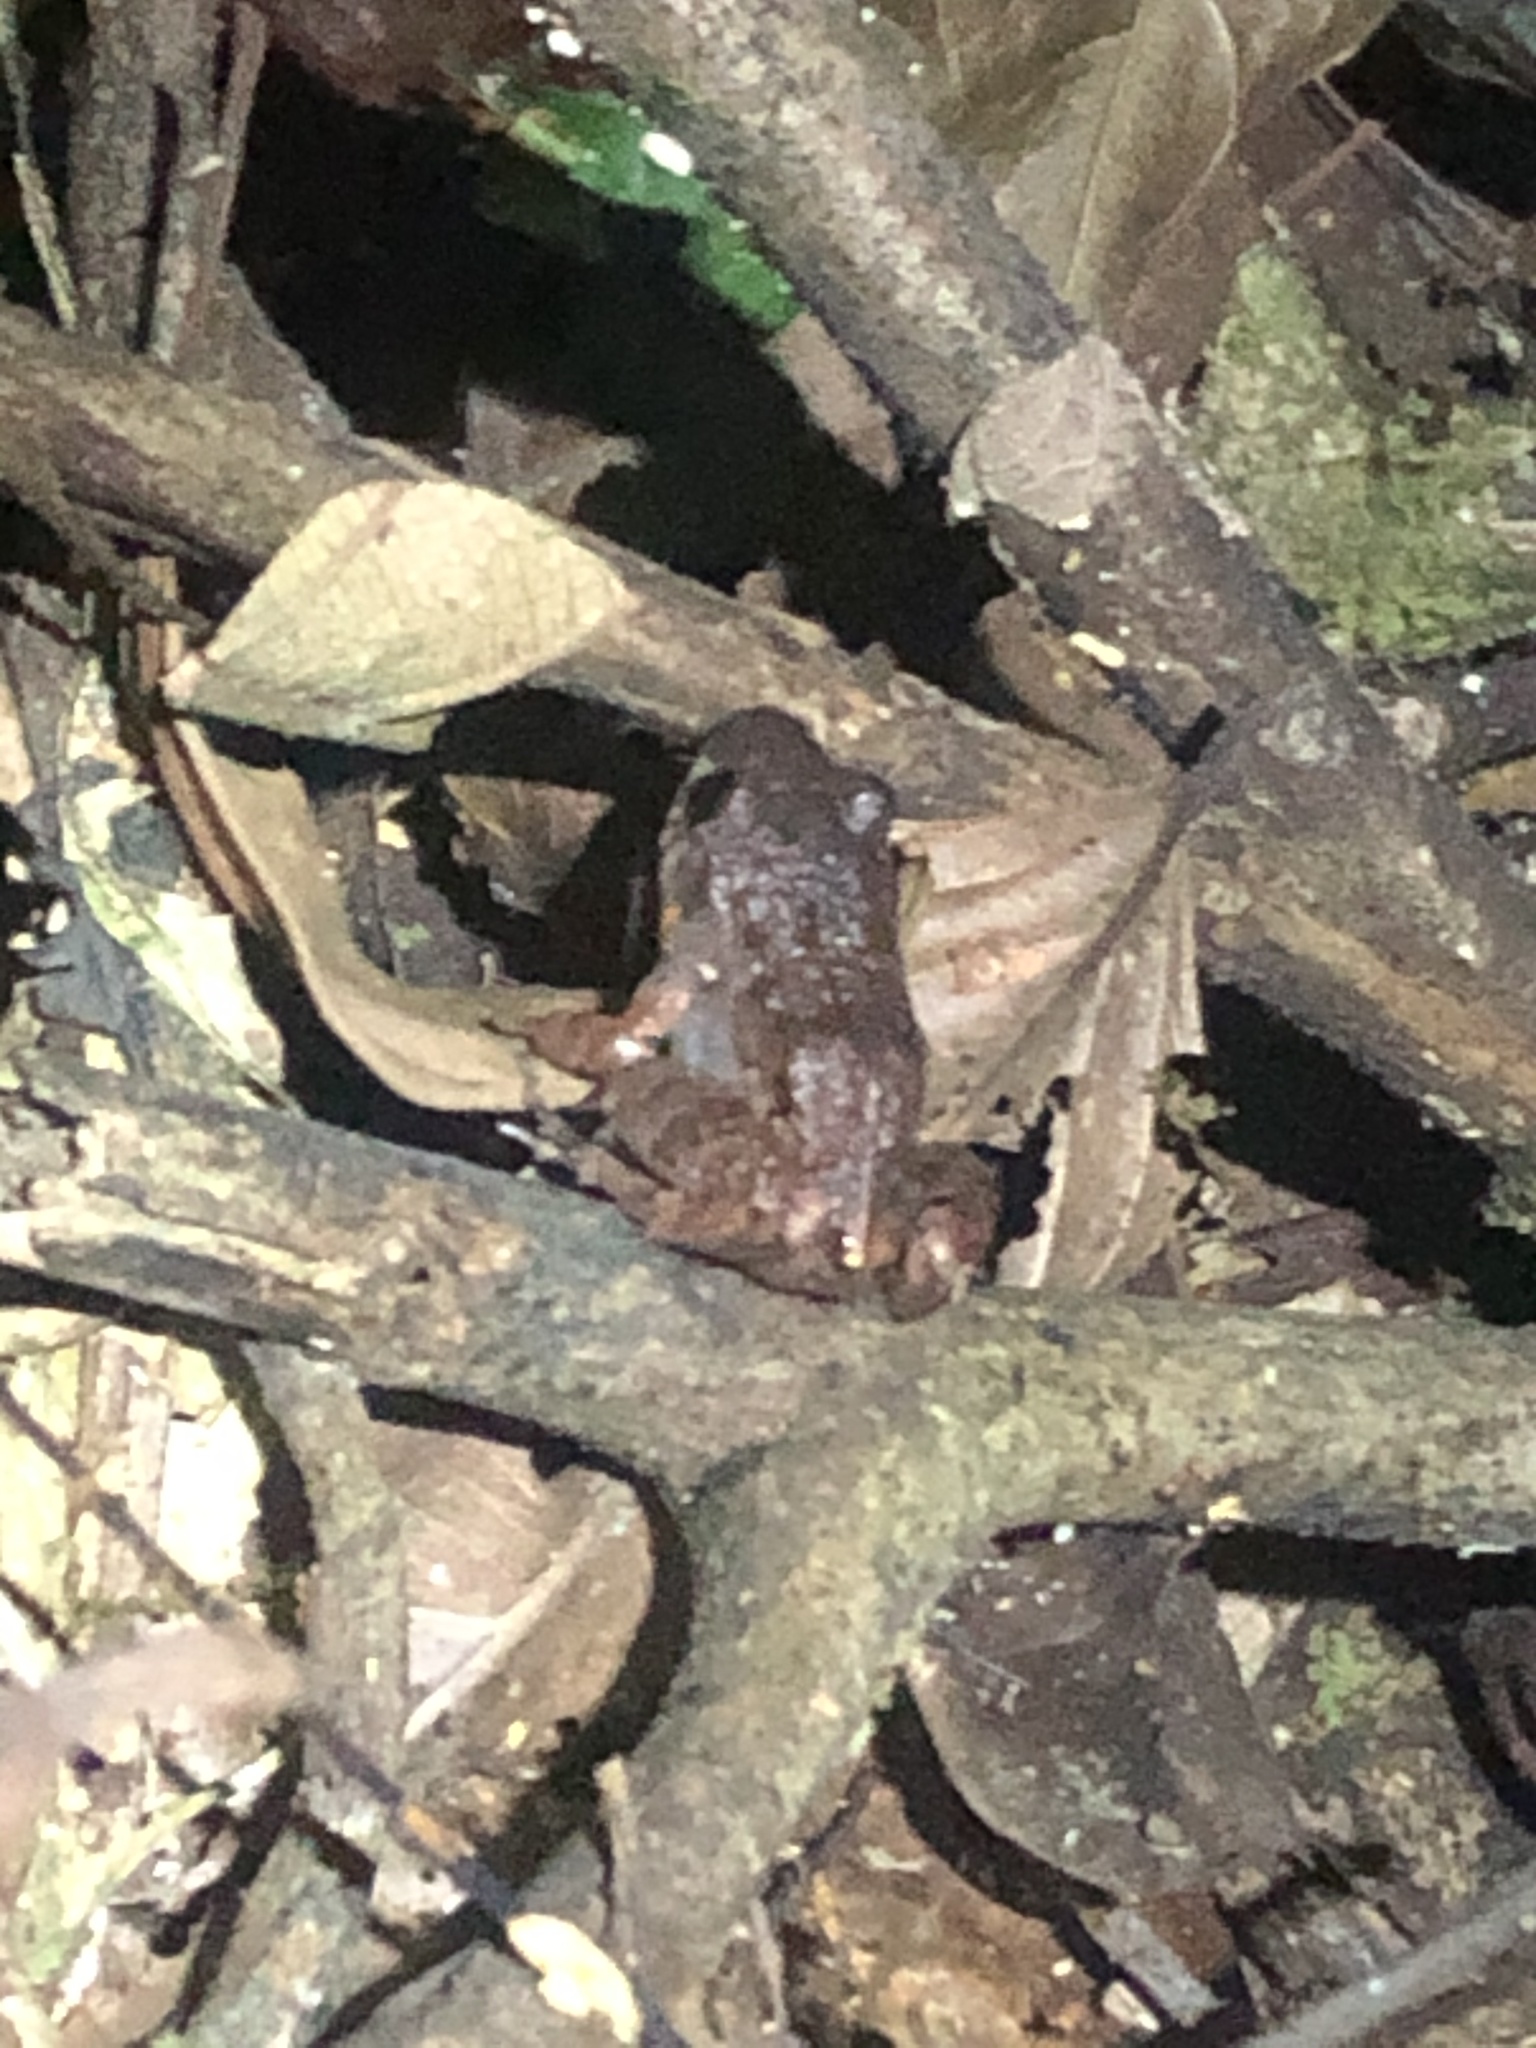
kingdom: Animalia
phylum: Chordata
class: Amphibia
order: Anura
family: Leptodactylidae
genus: Adenomera
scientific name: Adenomera andreae
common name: Lowland tropical bullfrog
